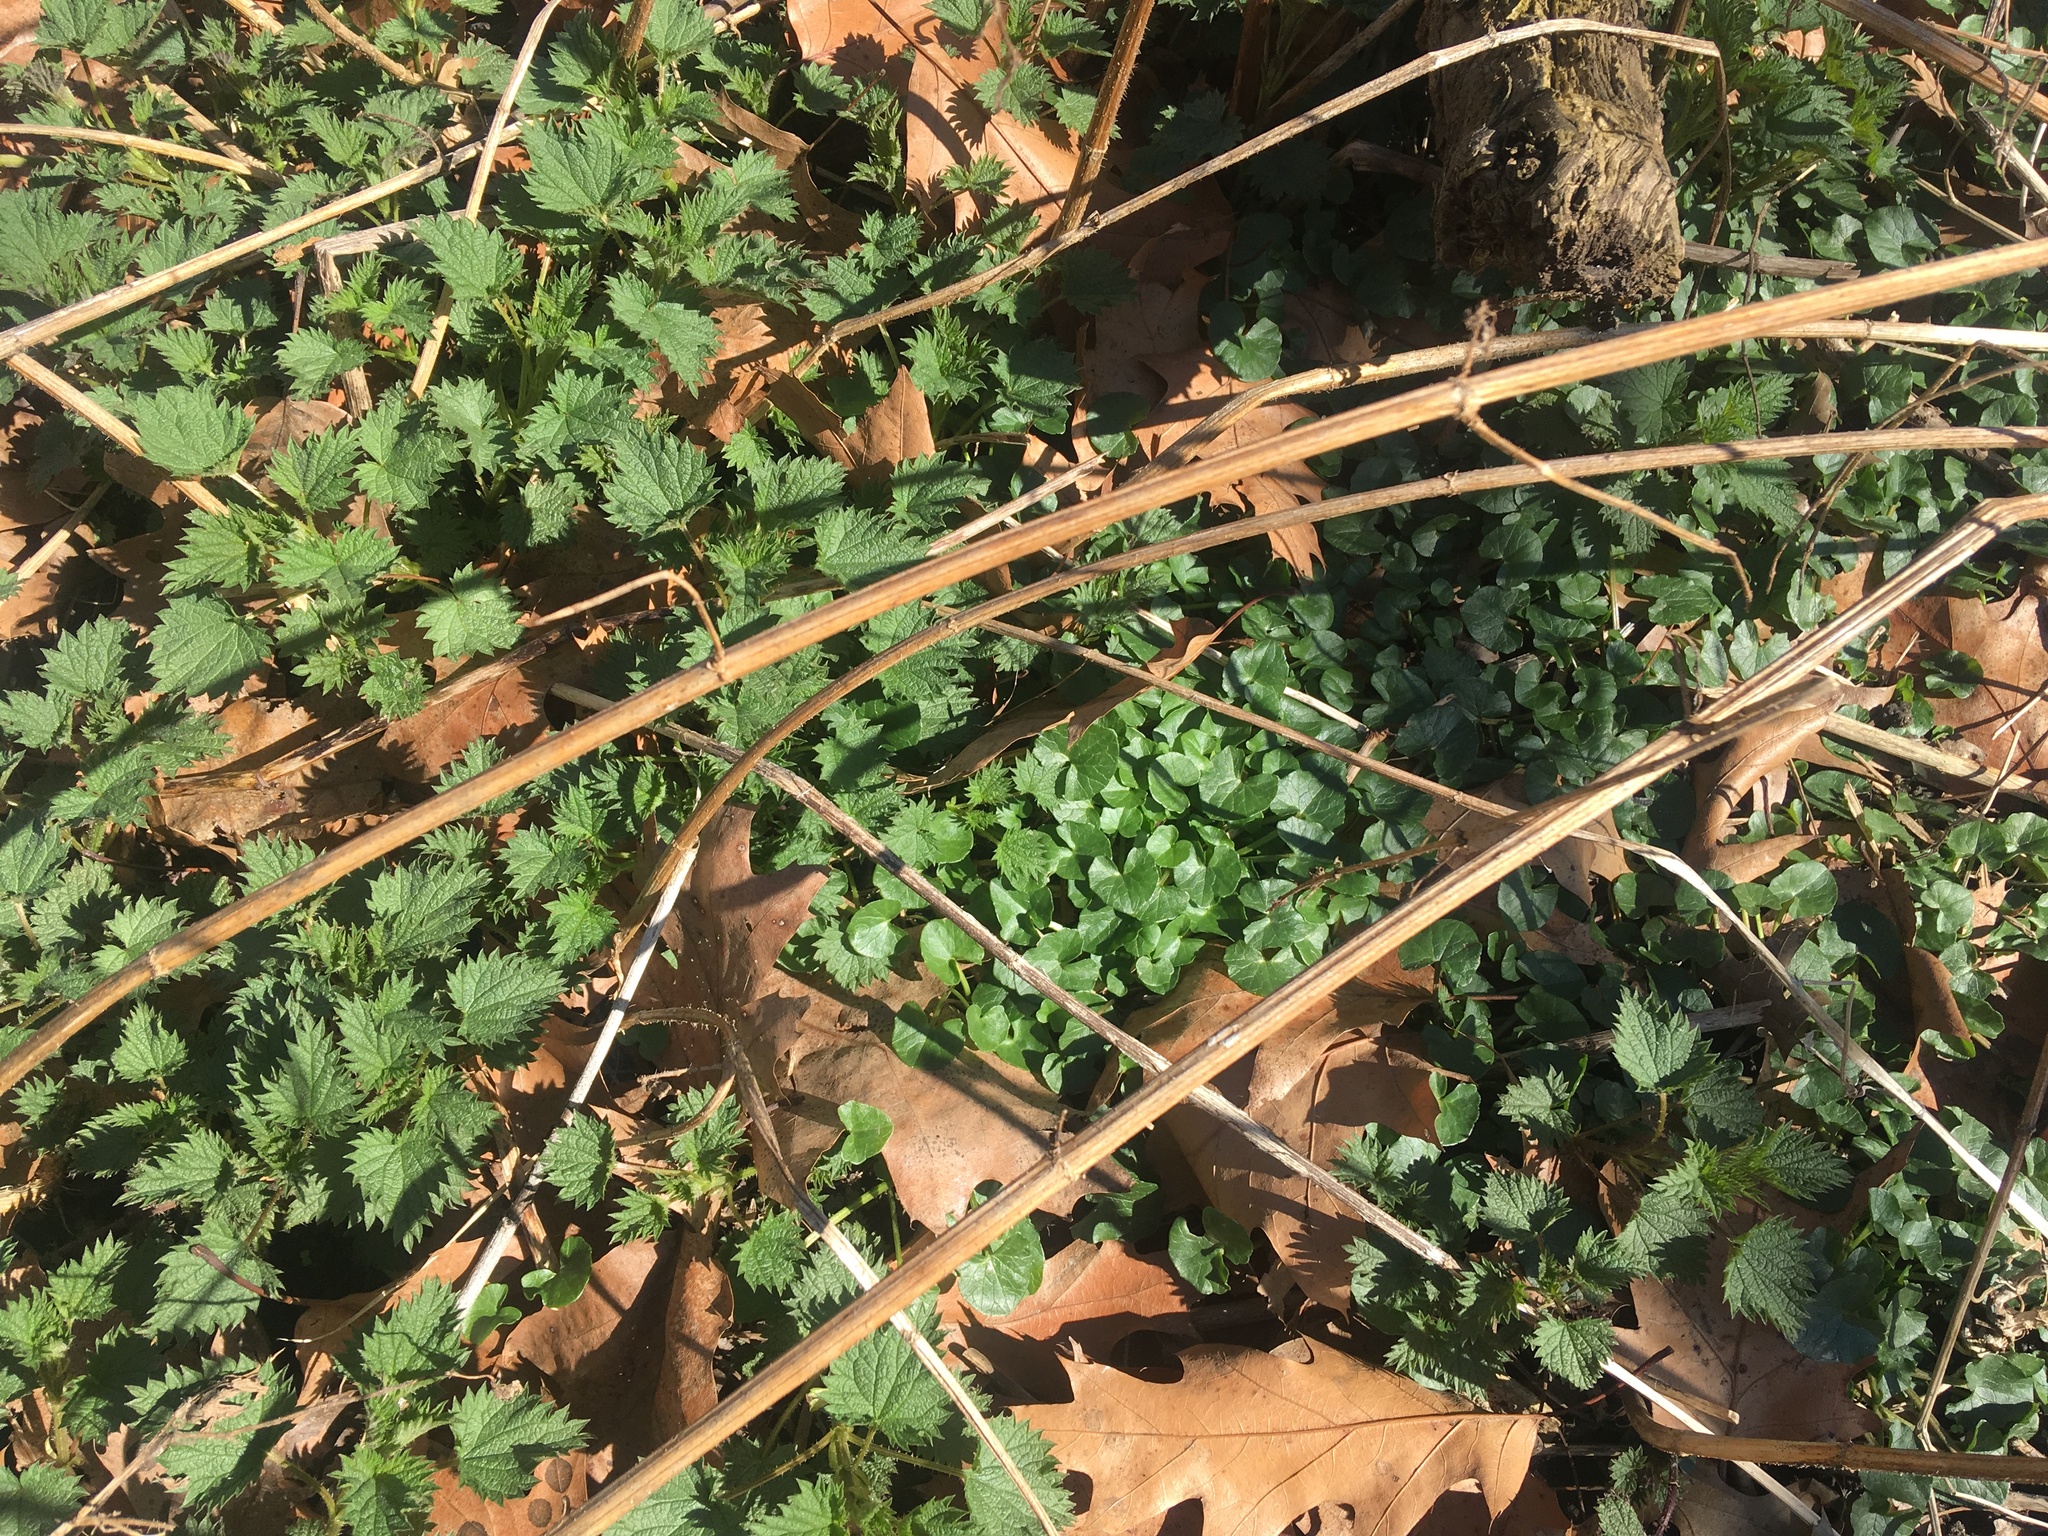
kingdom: Plantae
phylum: Tracheophyta
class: Magnoliopsida
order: Ranunculales
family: Ranunculaceae
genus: Ficaria
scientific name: Ficaria verna
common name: Lesser celandine
